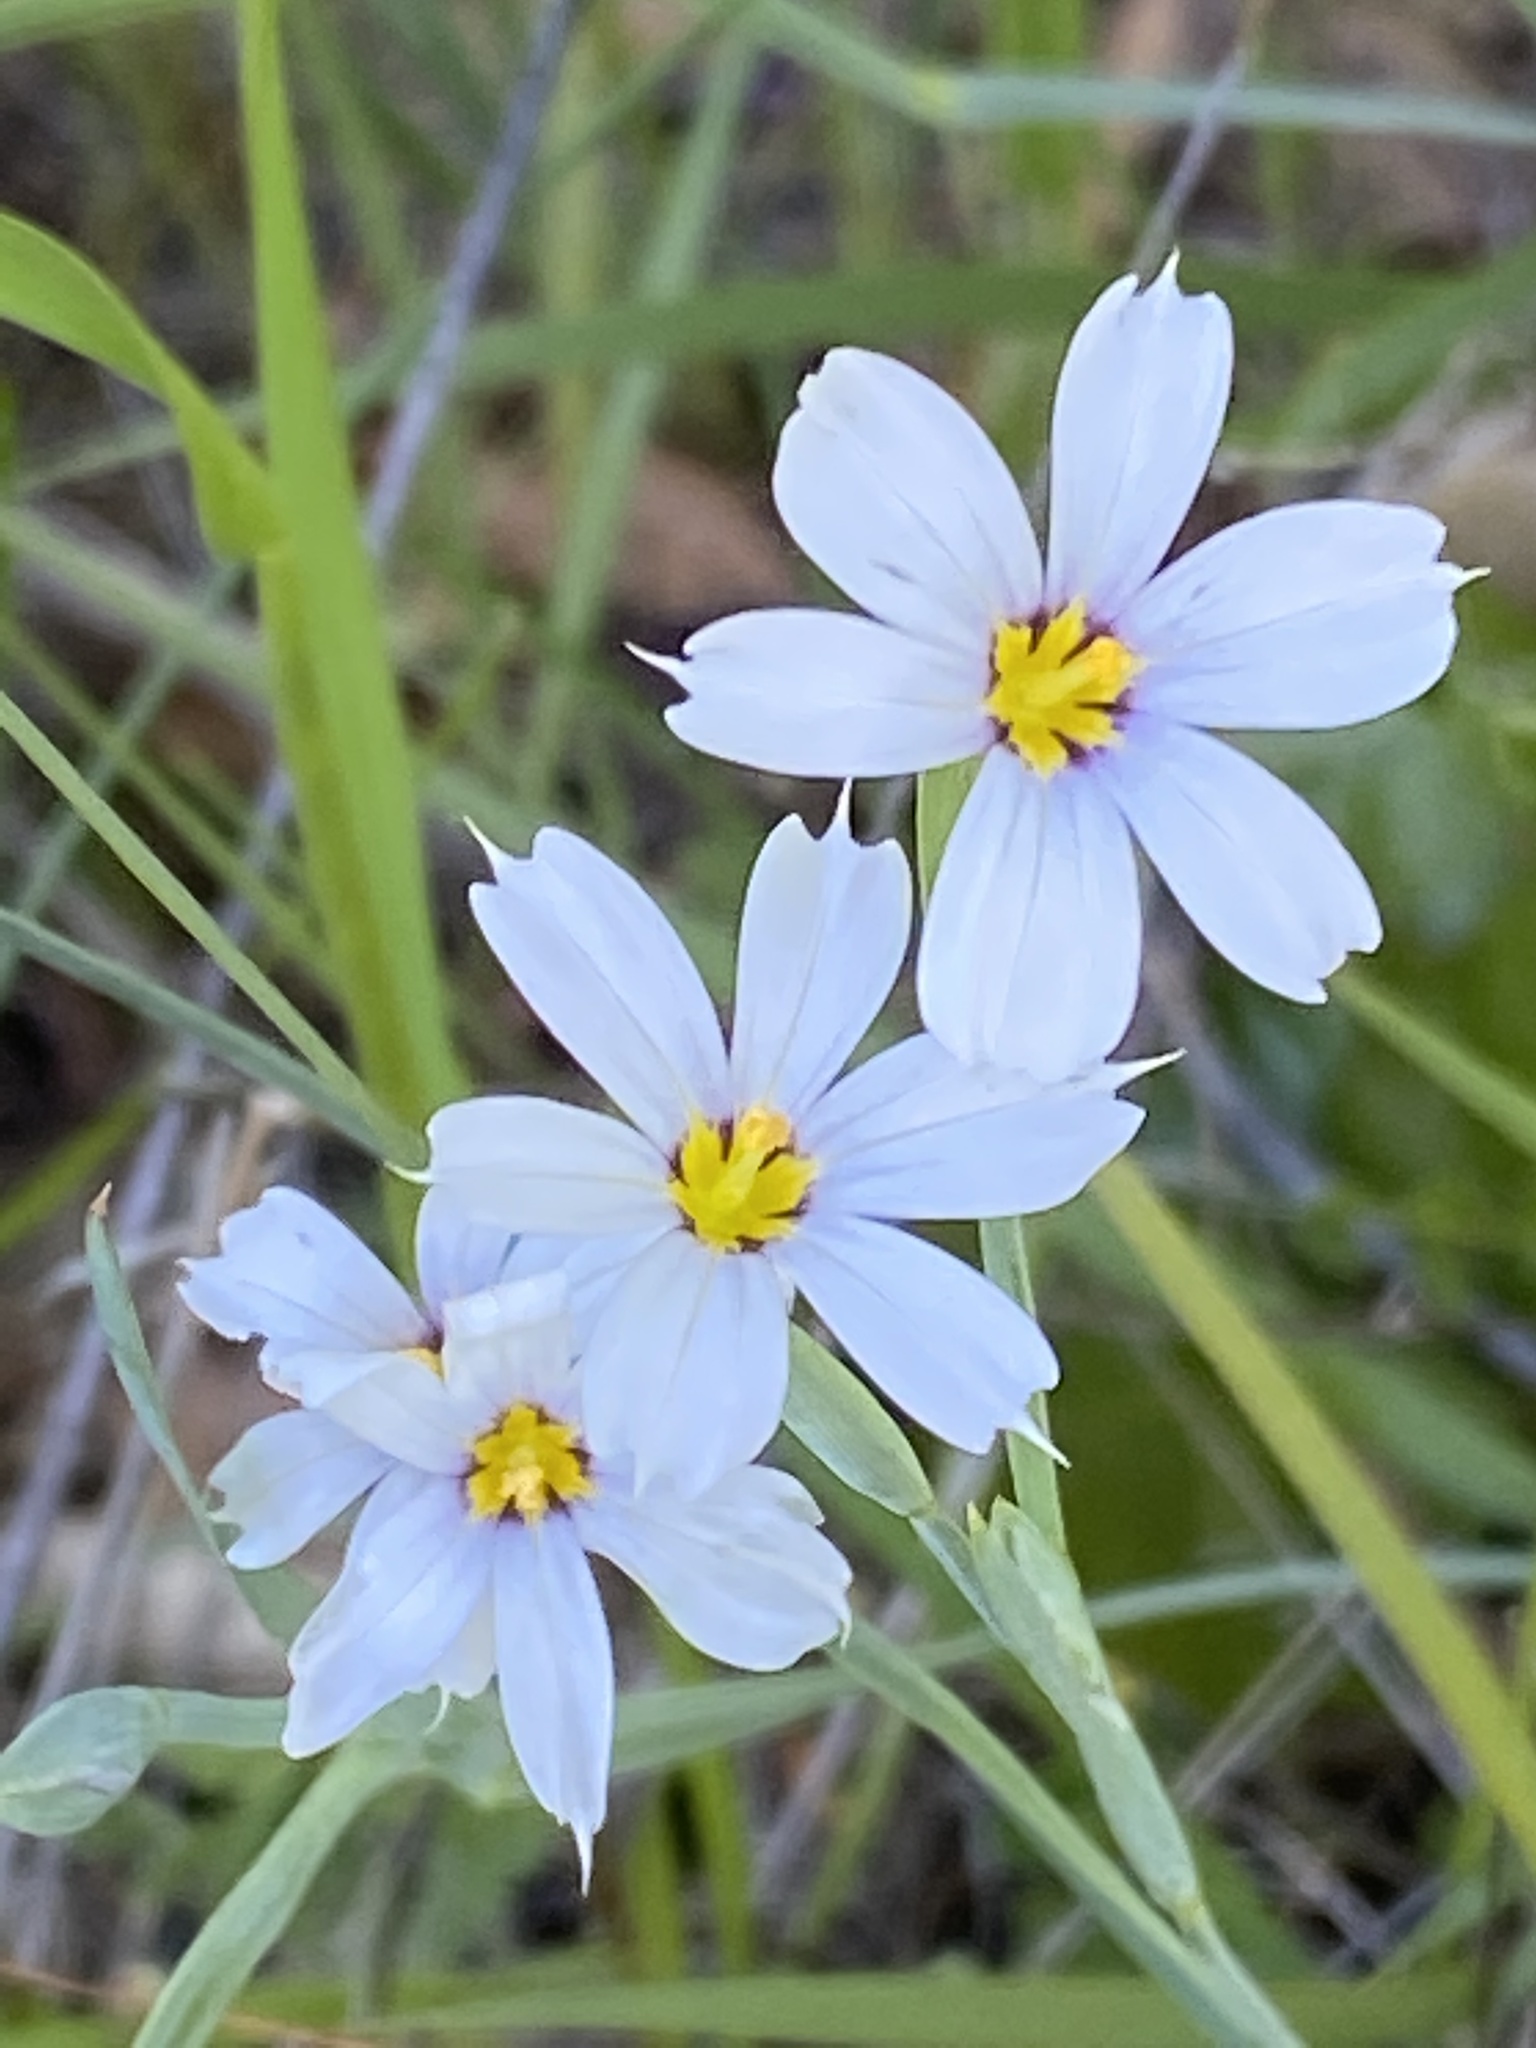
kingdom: Plantae
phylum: Tracheophyta
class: Liliopsida
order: Asparagales
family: Iridaceae
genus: Sisyrinchium
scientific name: Sisyrinchium bellum
